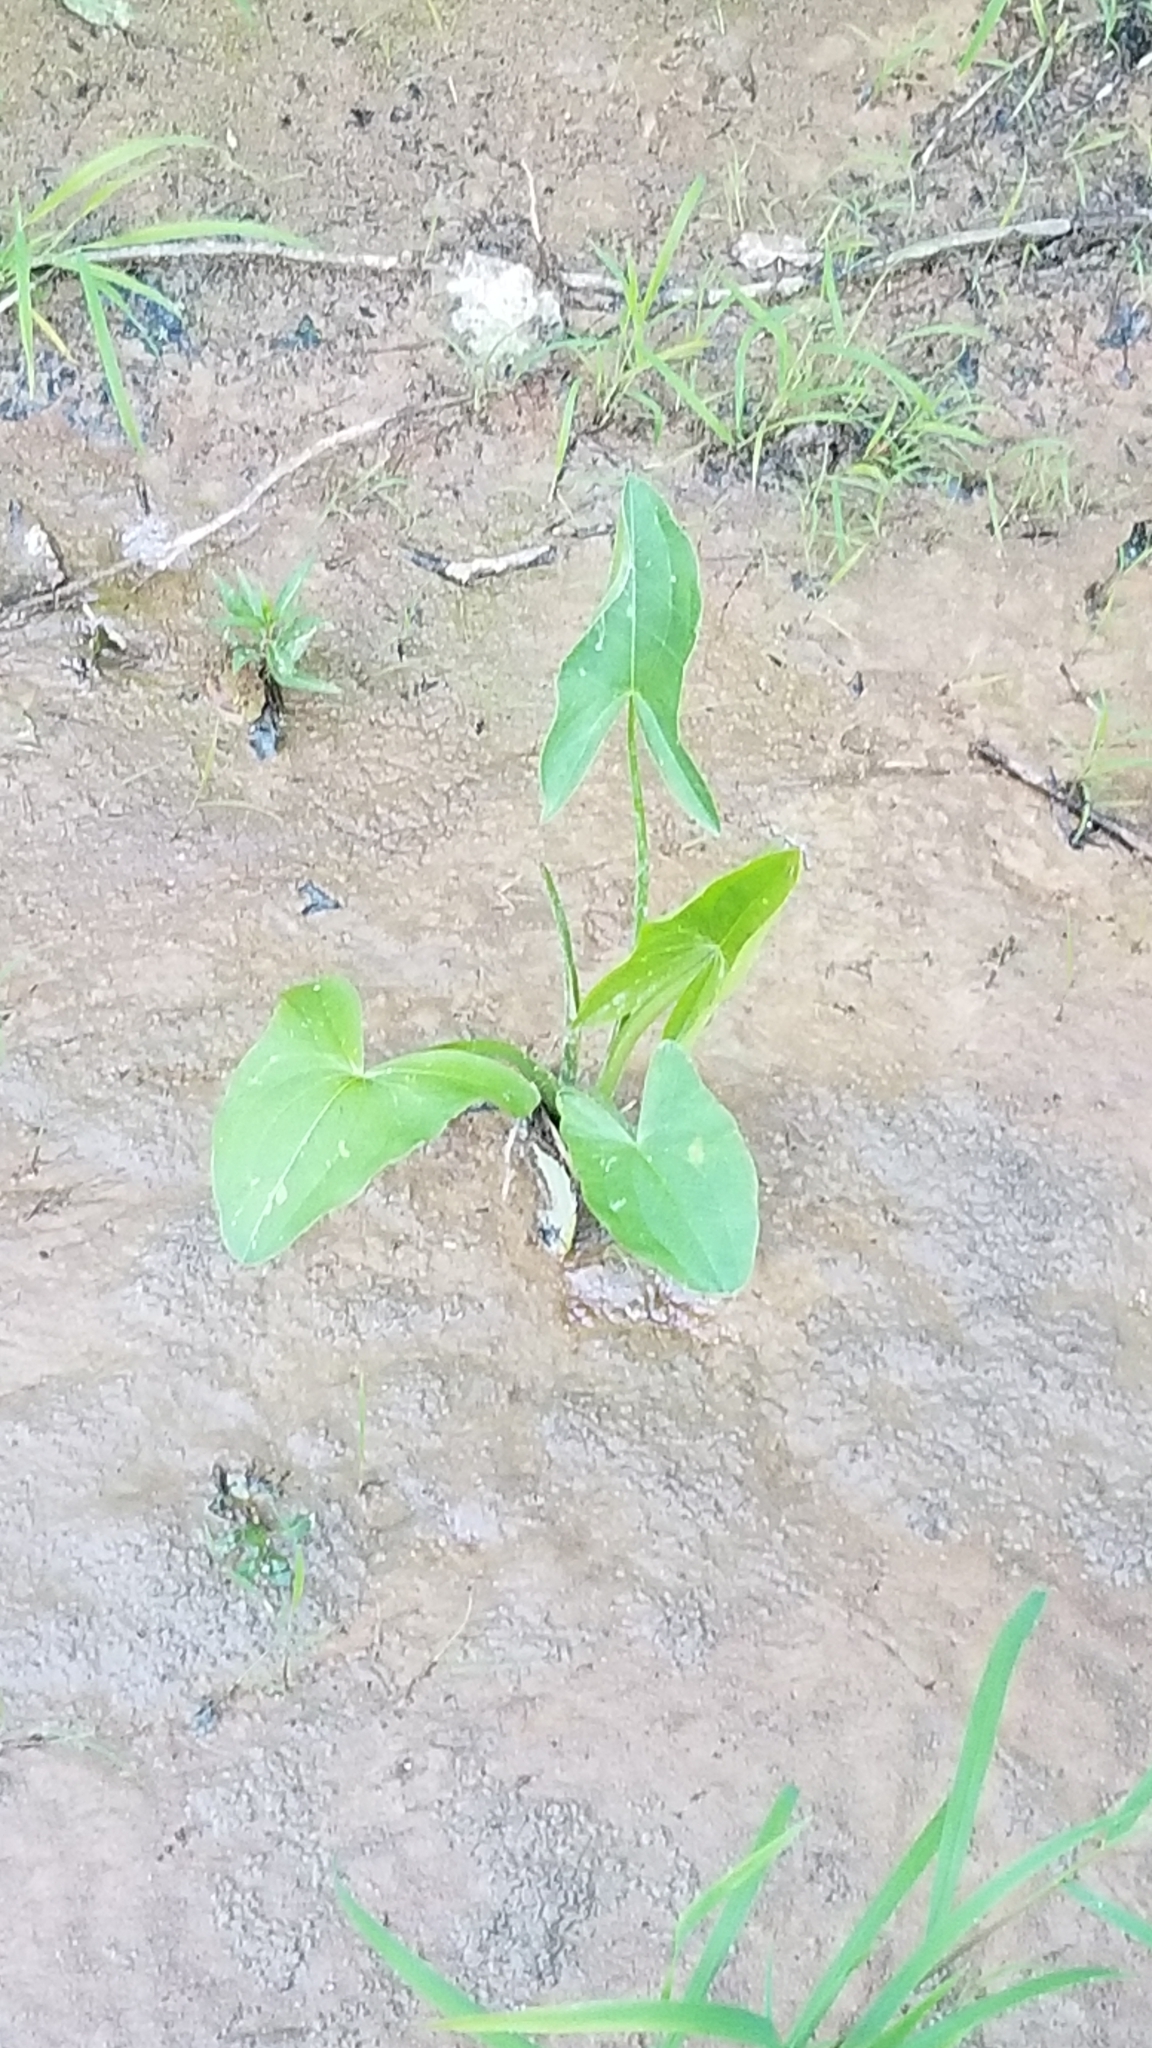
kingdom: Plantae
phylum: Tracheophyta
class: Liliopsida
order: Alismatales
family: Araceae
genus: Peltandra
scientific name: Peltandra virginica
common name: Arrow arum
